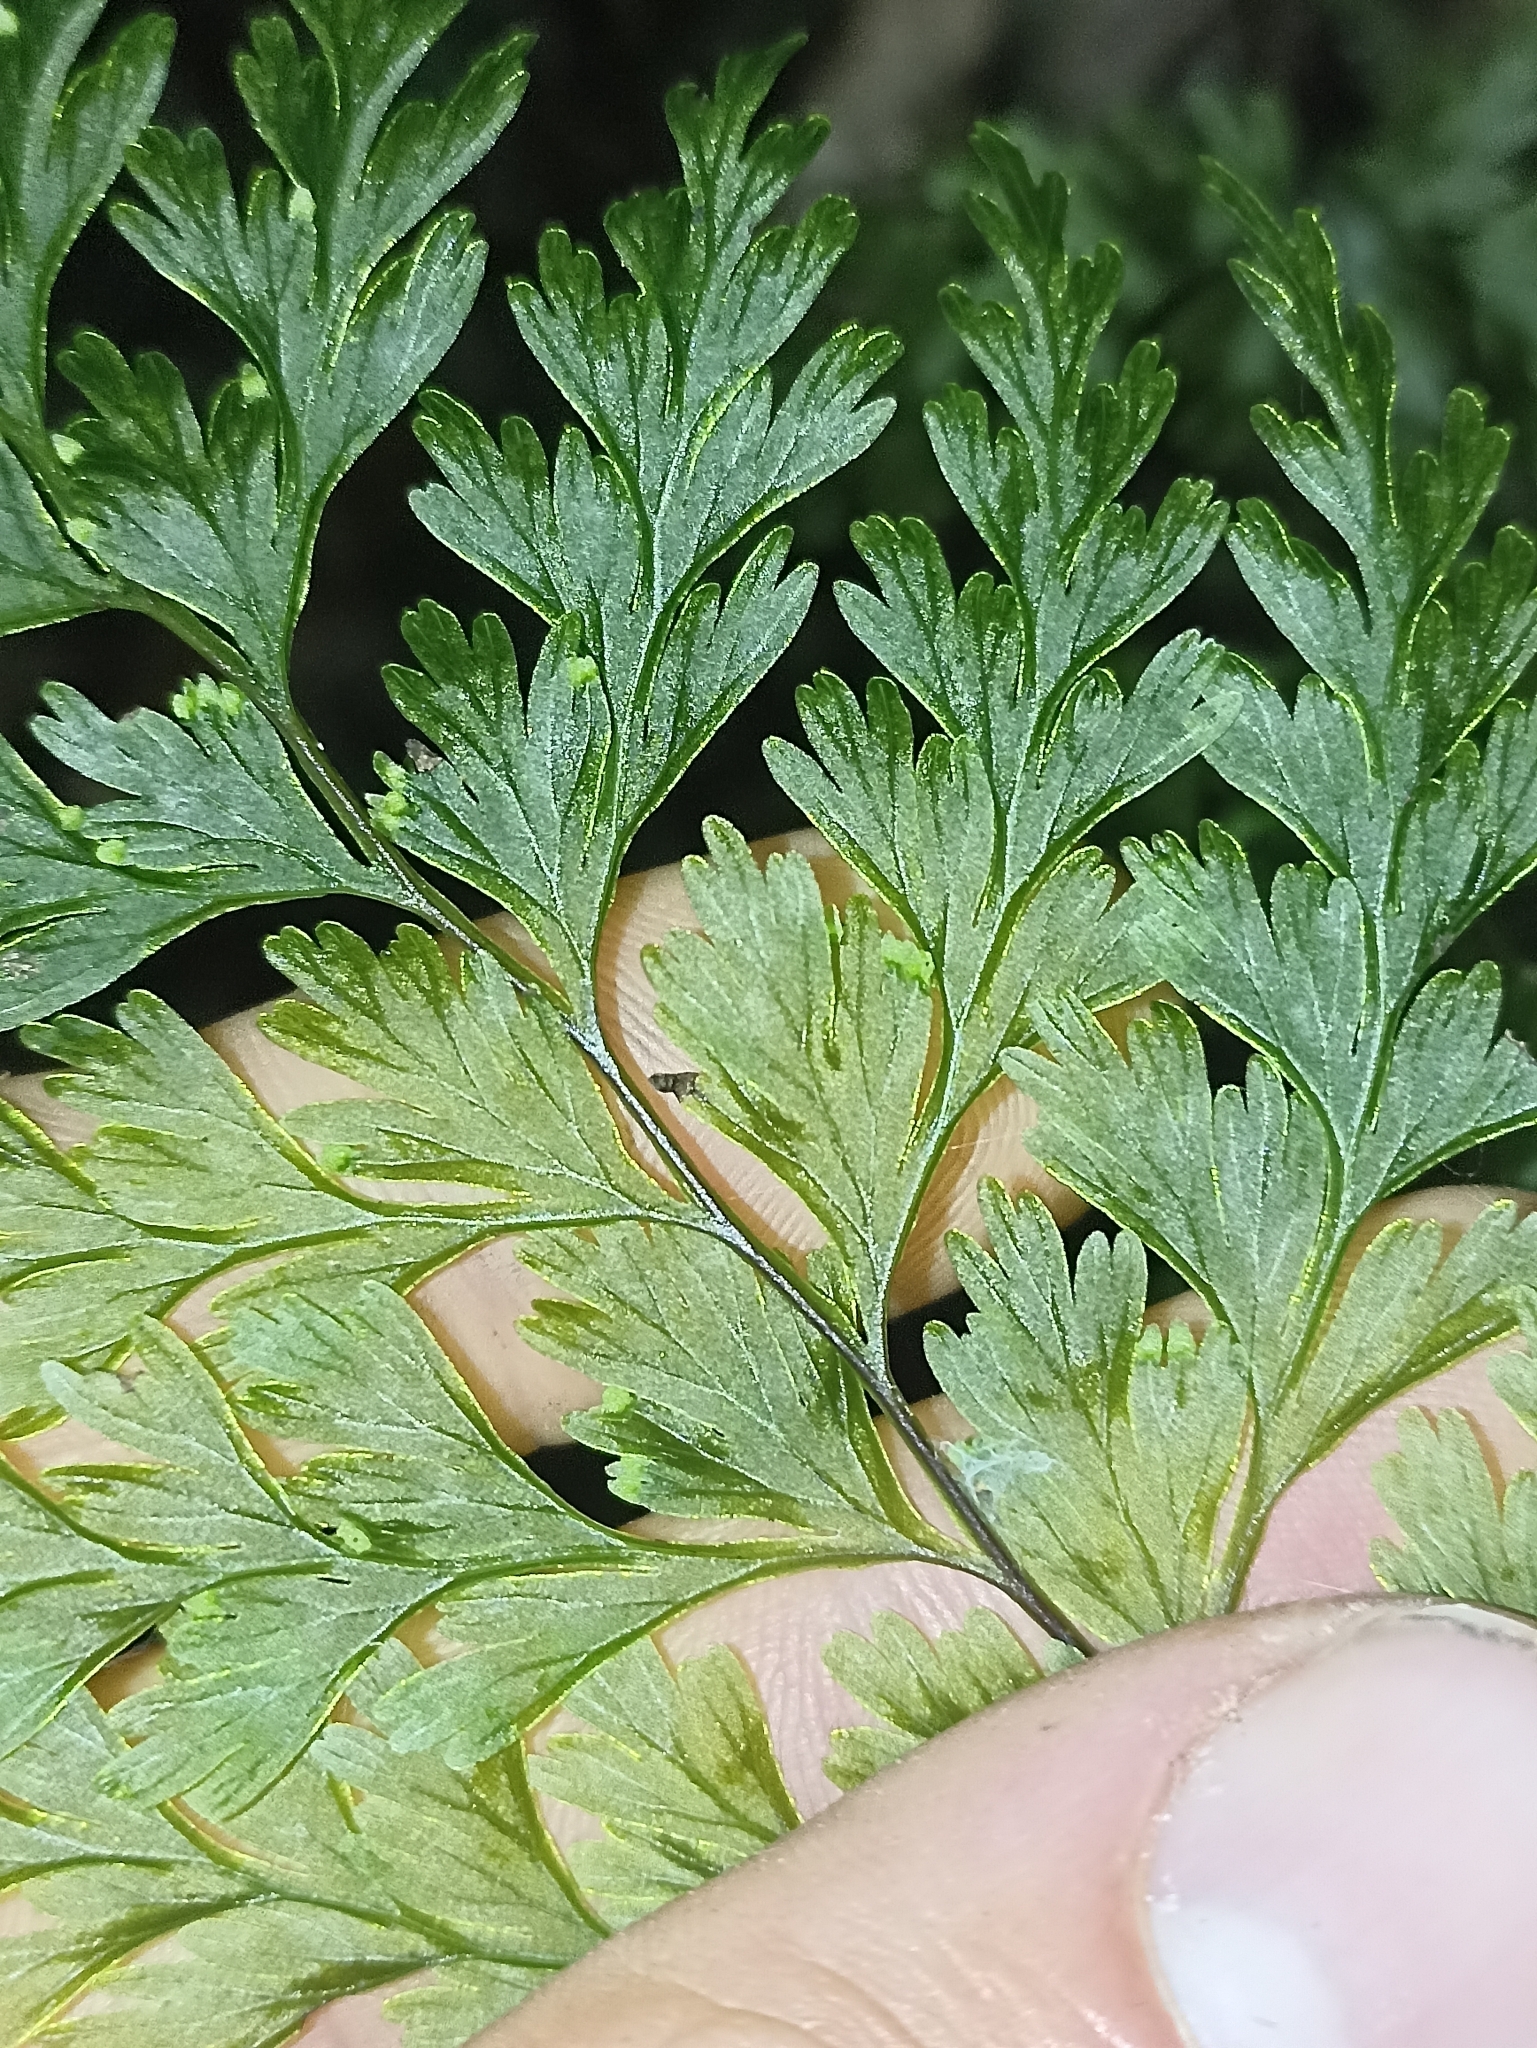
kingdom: Plantae
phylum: Tracheophyta
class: Polypodiopsida
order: Hymenophyllales
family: Hymenophyllaceae
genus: Hymenophyllum
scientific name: Hymenophyllum demissum
